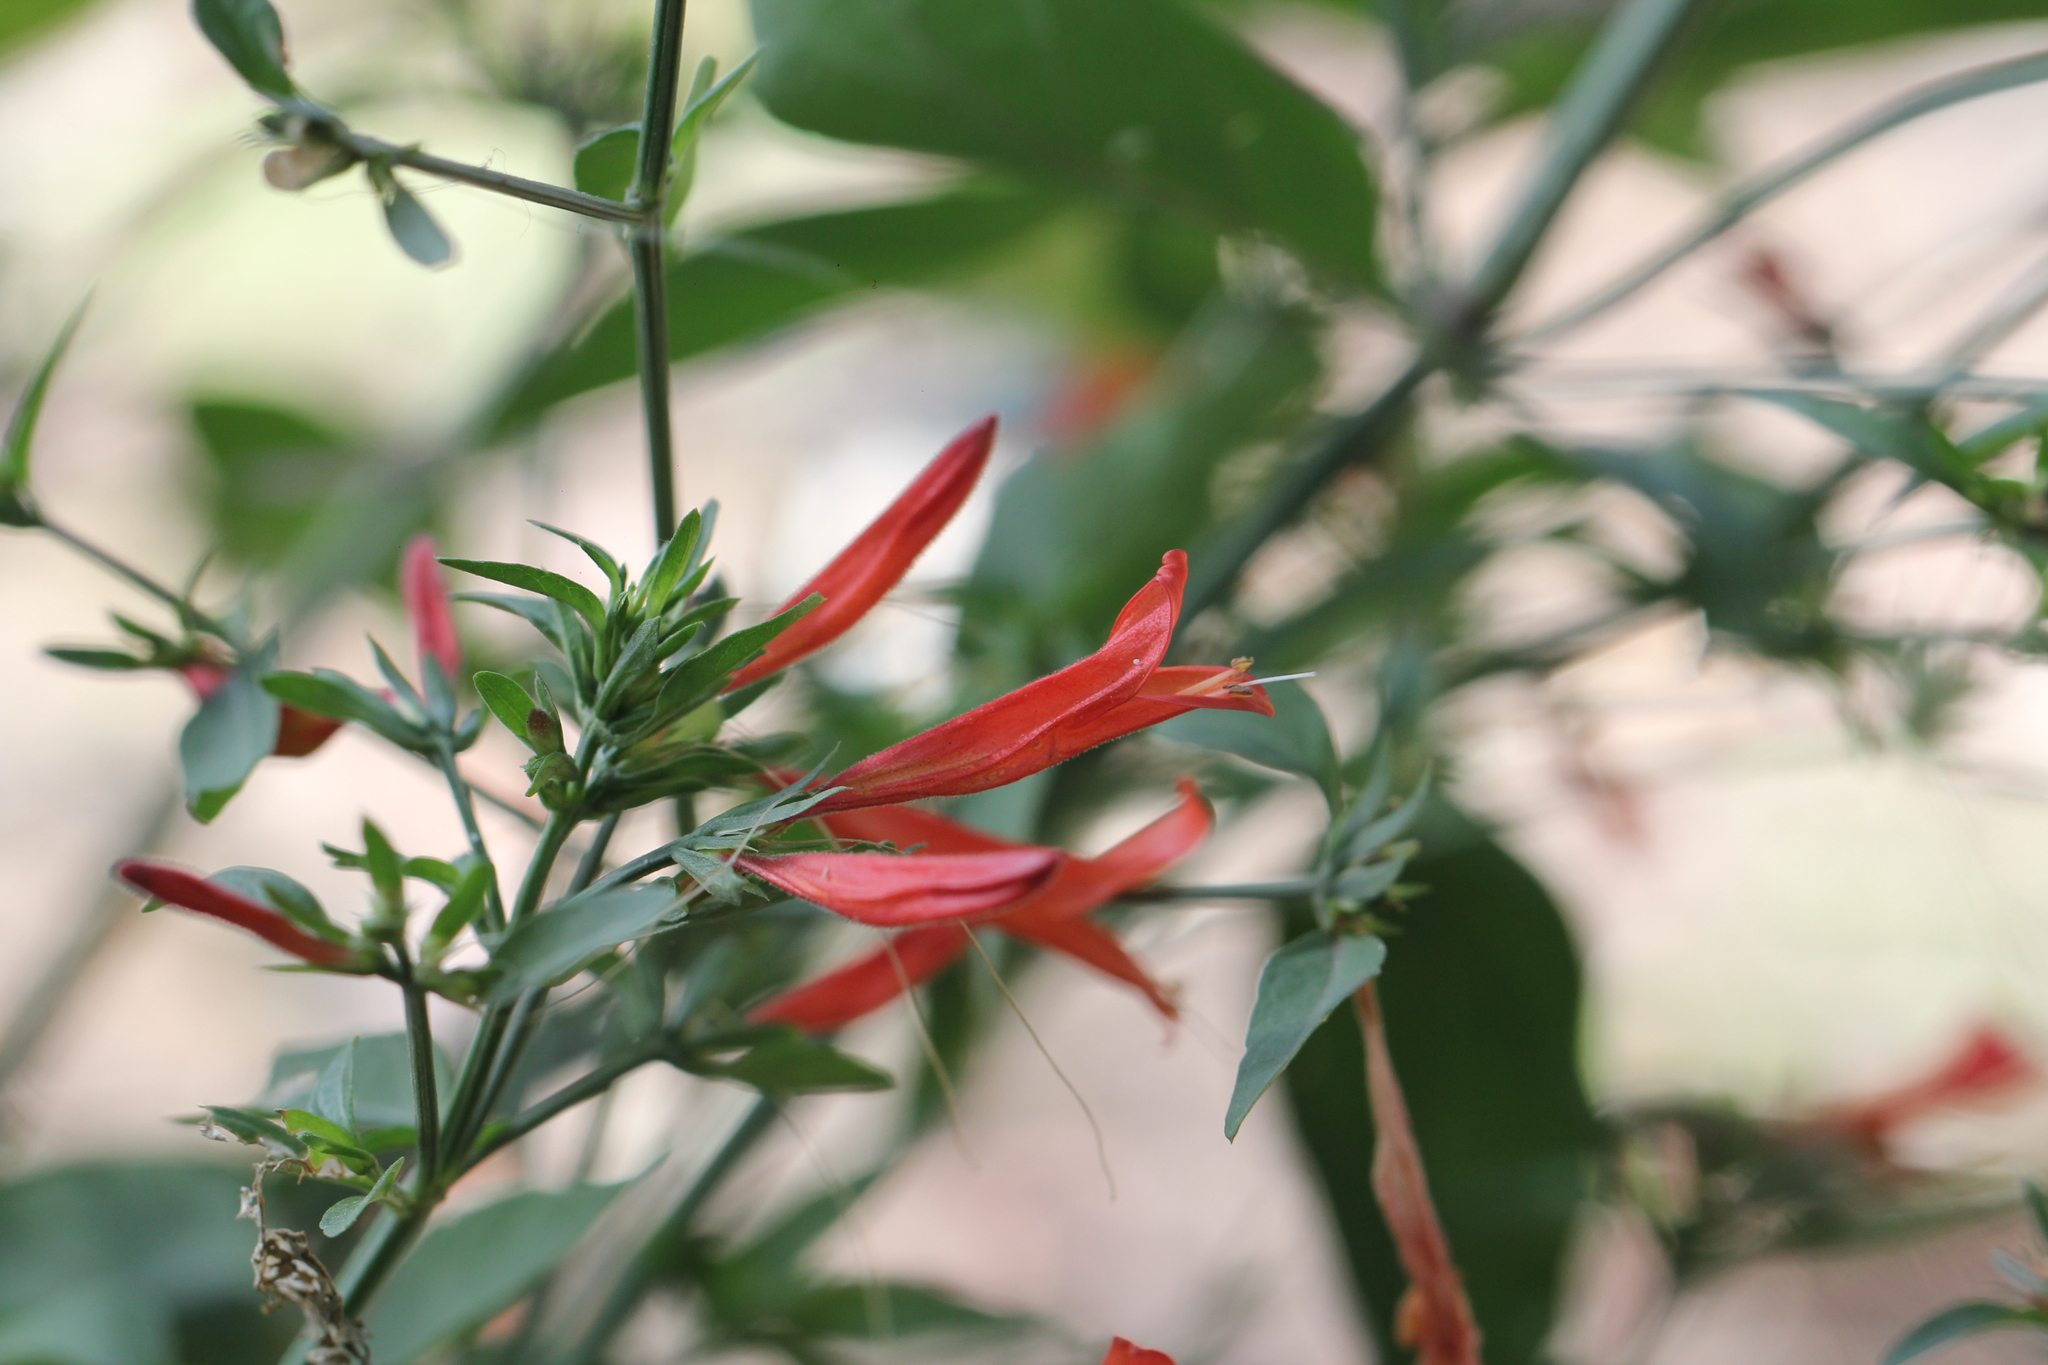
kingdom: Plantae
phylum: Tracheophyta
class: Magnoliopsida
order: Lamiales
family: Acanthaceae
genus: Dicliptera
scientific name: Dicliptera squarrosa
